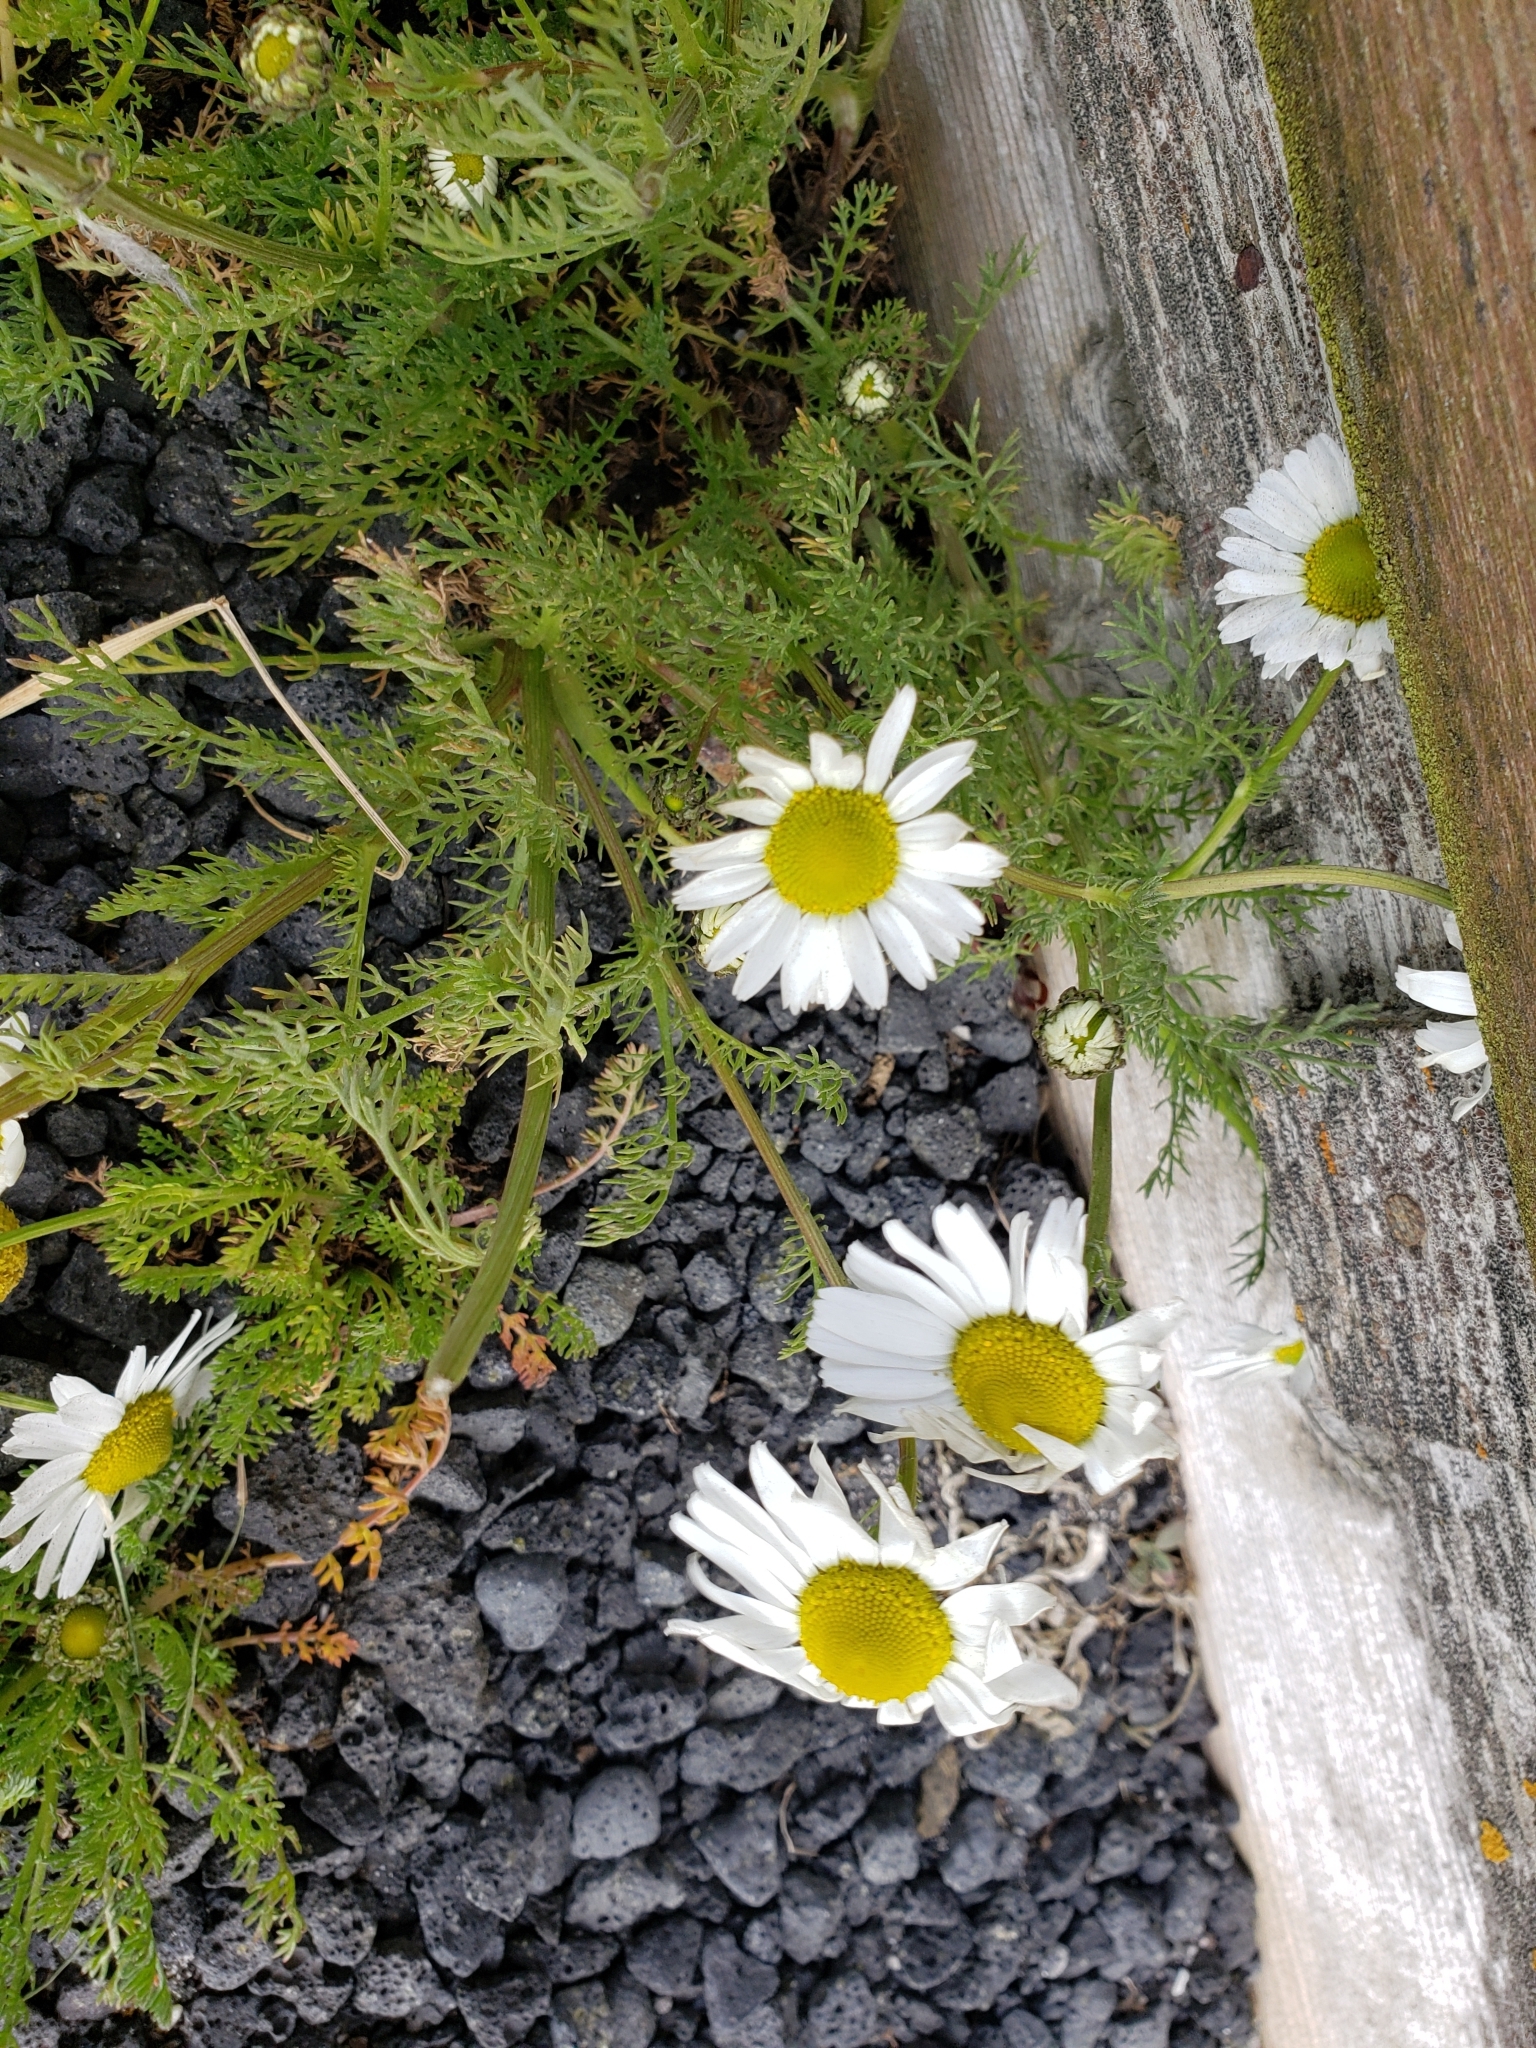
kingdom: Plantae
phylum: Tracheophyta
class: Magnoliopsida
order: Asterales
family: Asteraceae
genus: Tripleurospermum
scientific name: Tripleurospermum maritimum
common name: Sea mayweed
